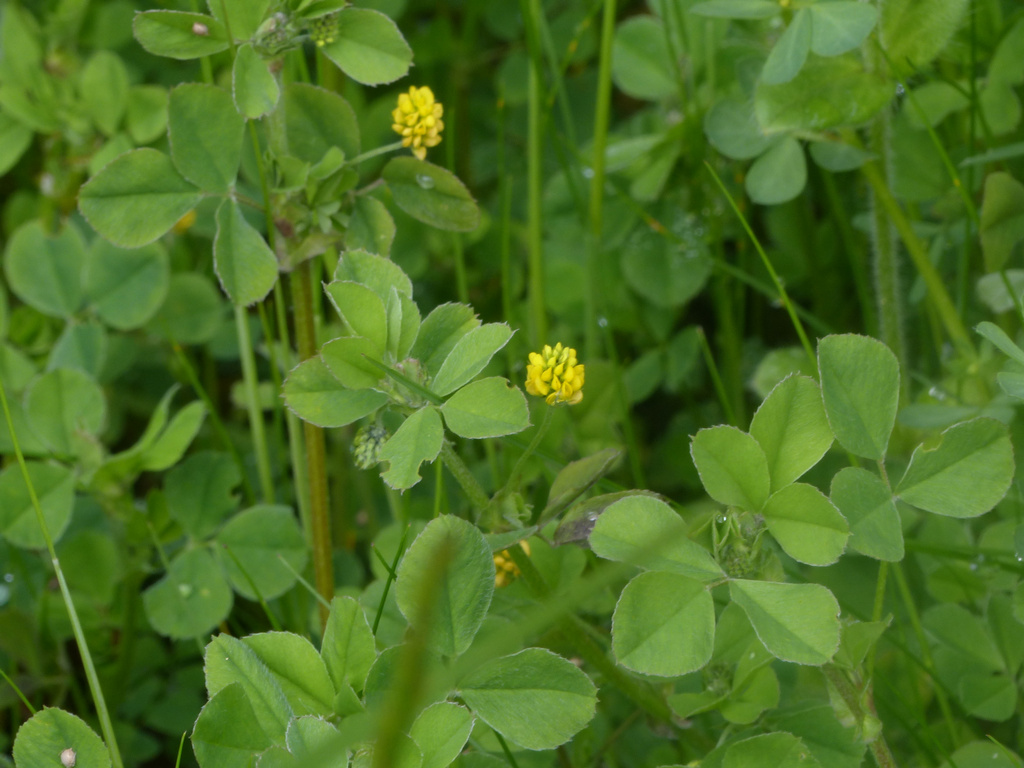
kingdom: Plantae
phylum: Tracheophyta
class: Magnoliopsida
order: Fabales
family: Fabaceae
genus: Medicago
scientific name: Medicago lupulina
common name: Black medick
